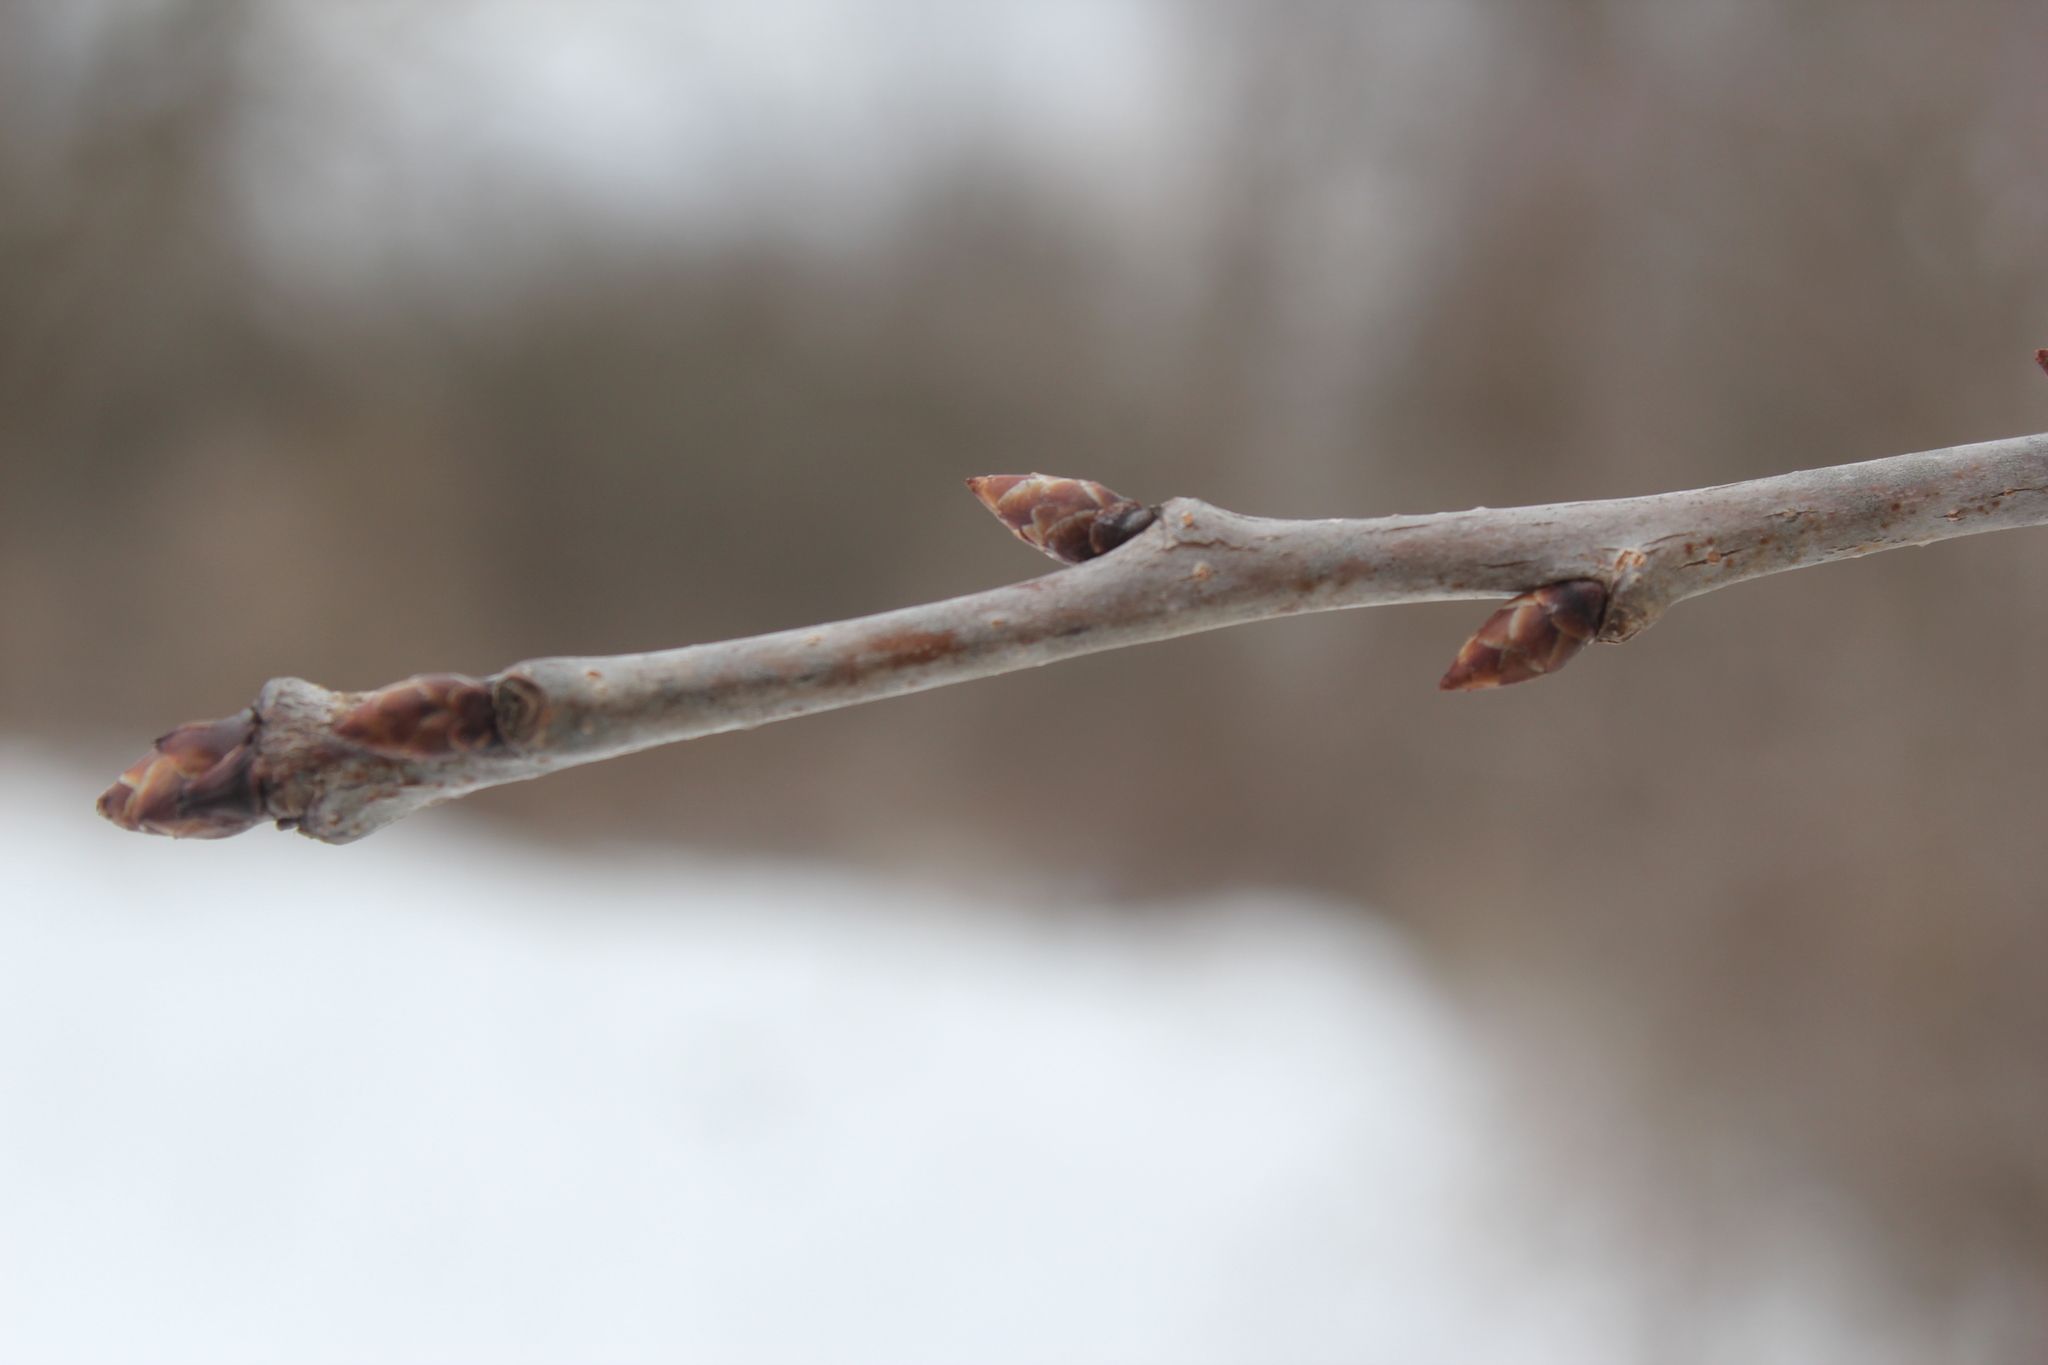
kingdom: Plantae
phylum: Tracheophyta
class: Magnoliopsida
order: Rosales
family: Rosaceae
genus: Prunus
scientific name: Prunus avium
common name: Sweet cherry
